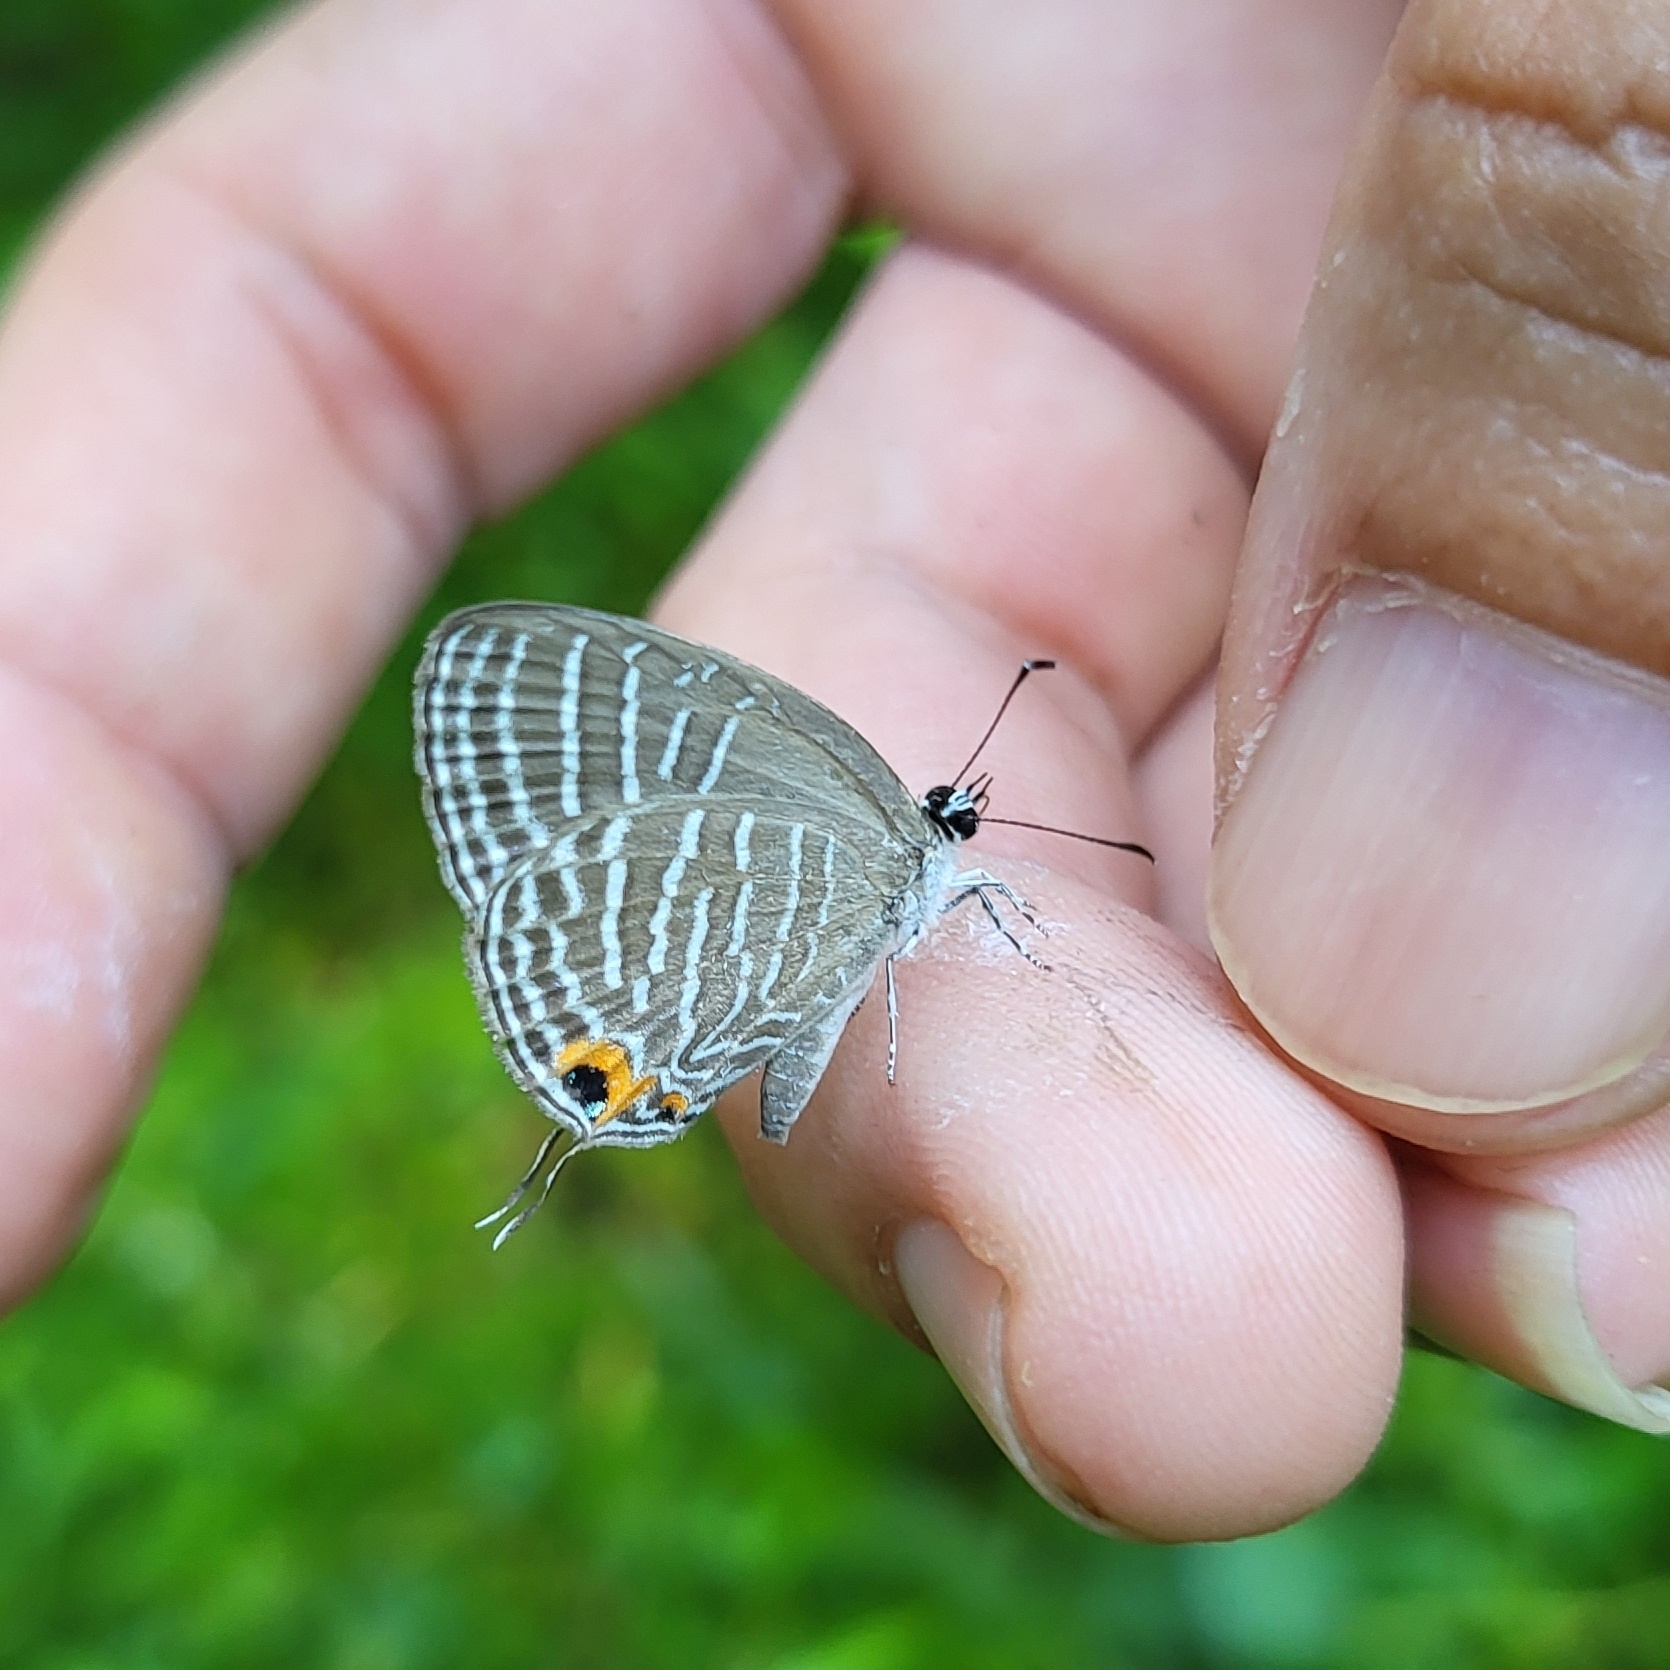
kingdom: Animalia
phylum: Arthropoda
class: Insecta
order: Lepidoptera
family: Lycaenidae
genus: Jamides
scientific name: Jamides celeno
